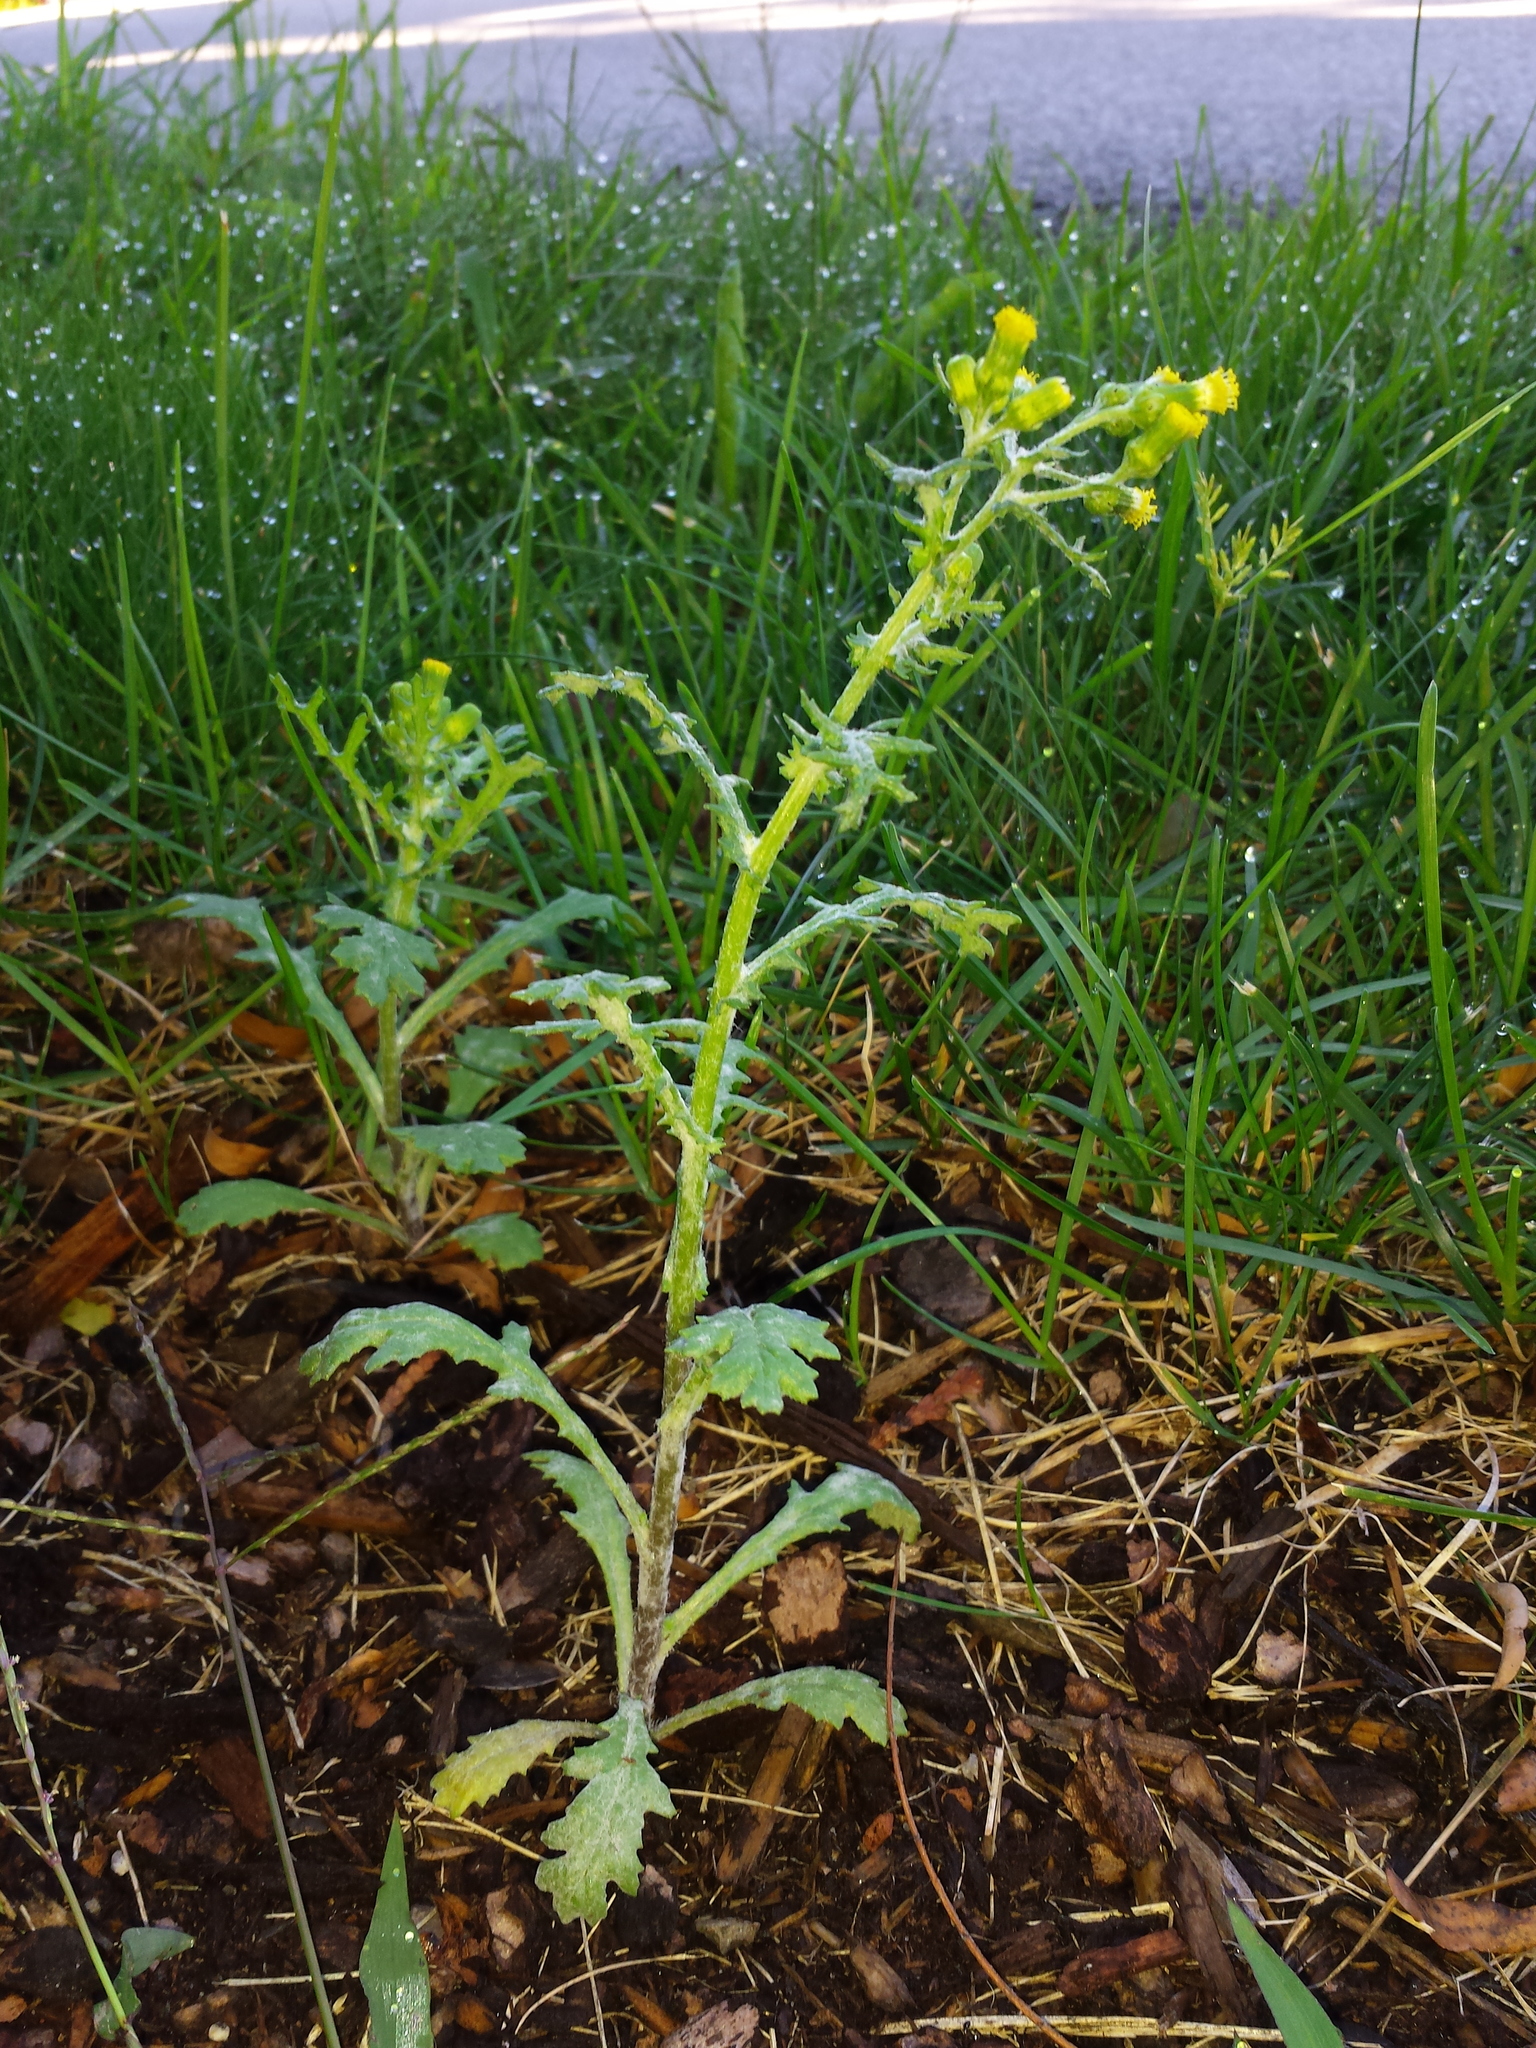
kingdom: Plantae
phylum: Tracheophyta
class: Magnoliopsida
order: Asterales
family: Asteraceae
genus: Senecio
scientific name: Senecio vulgaris
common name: Old-man-in-the-spring
